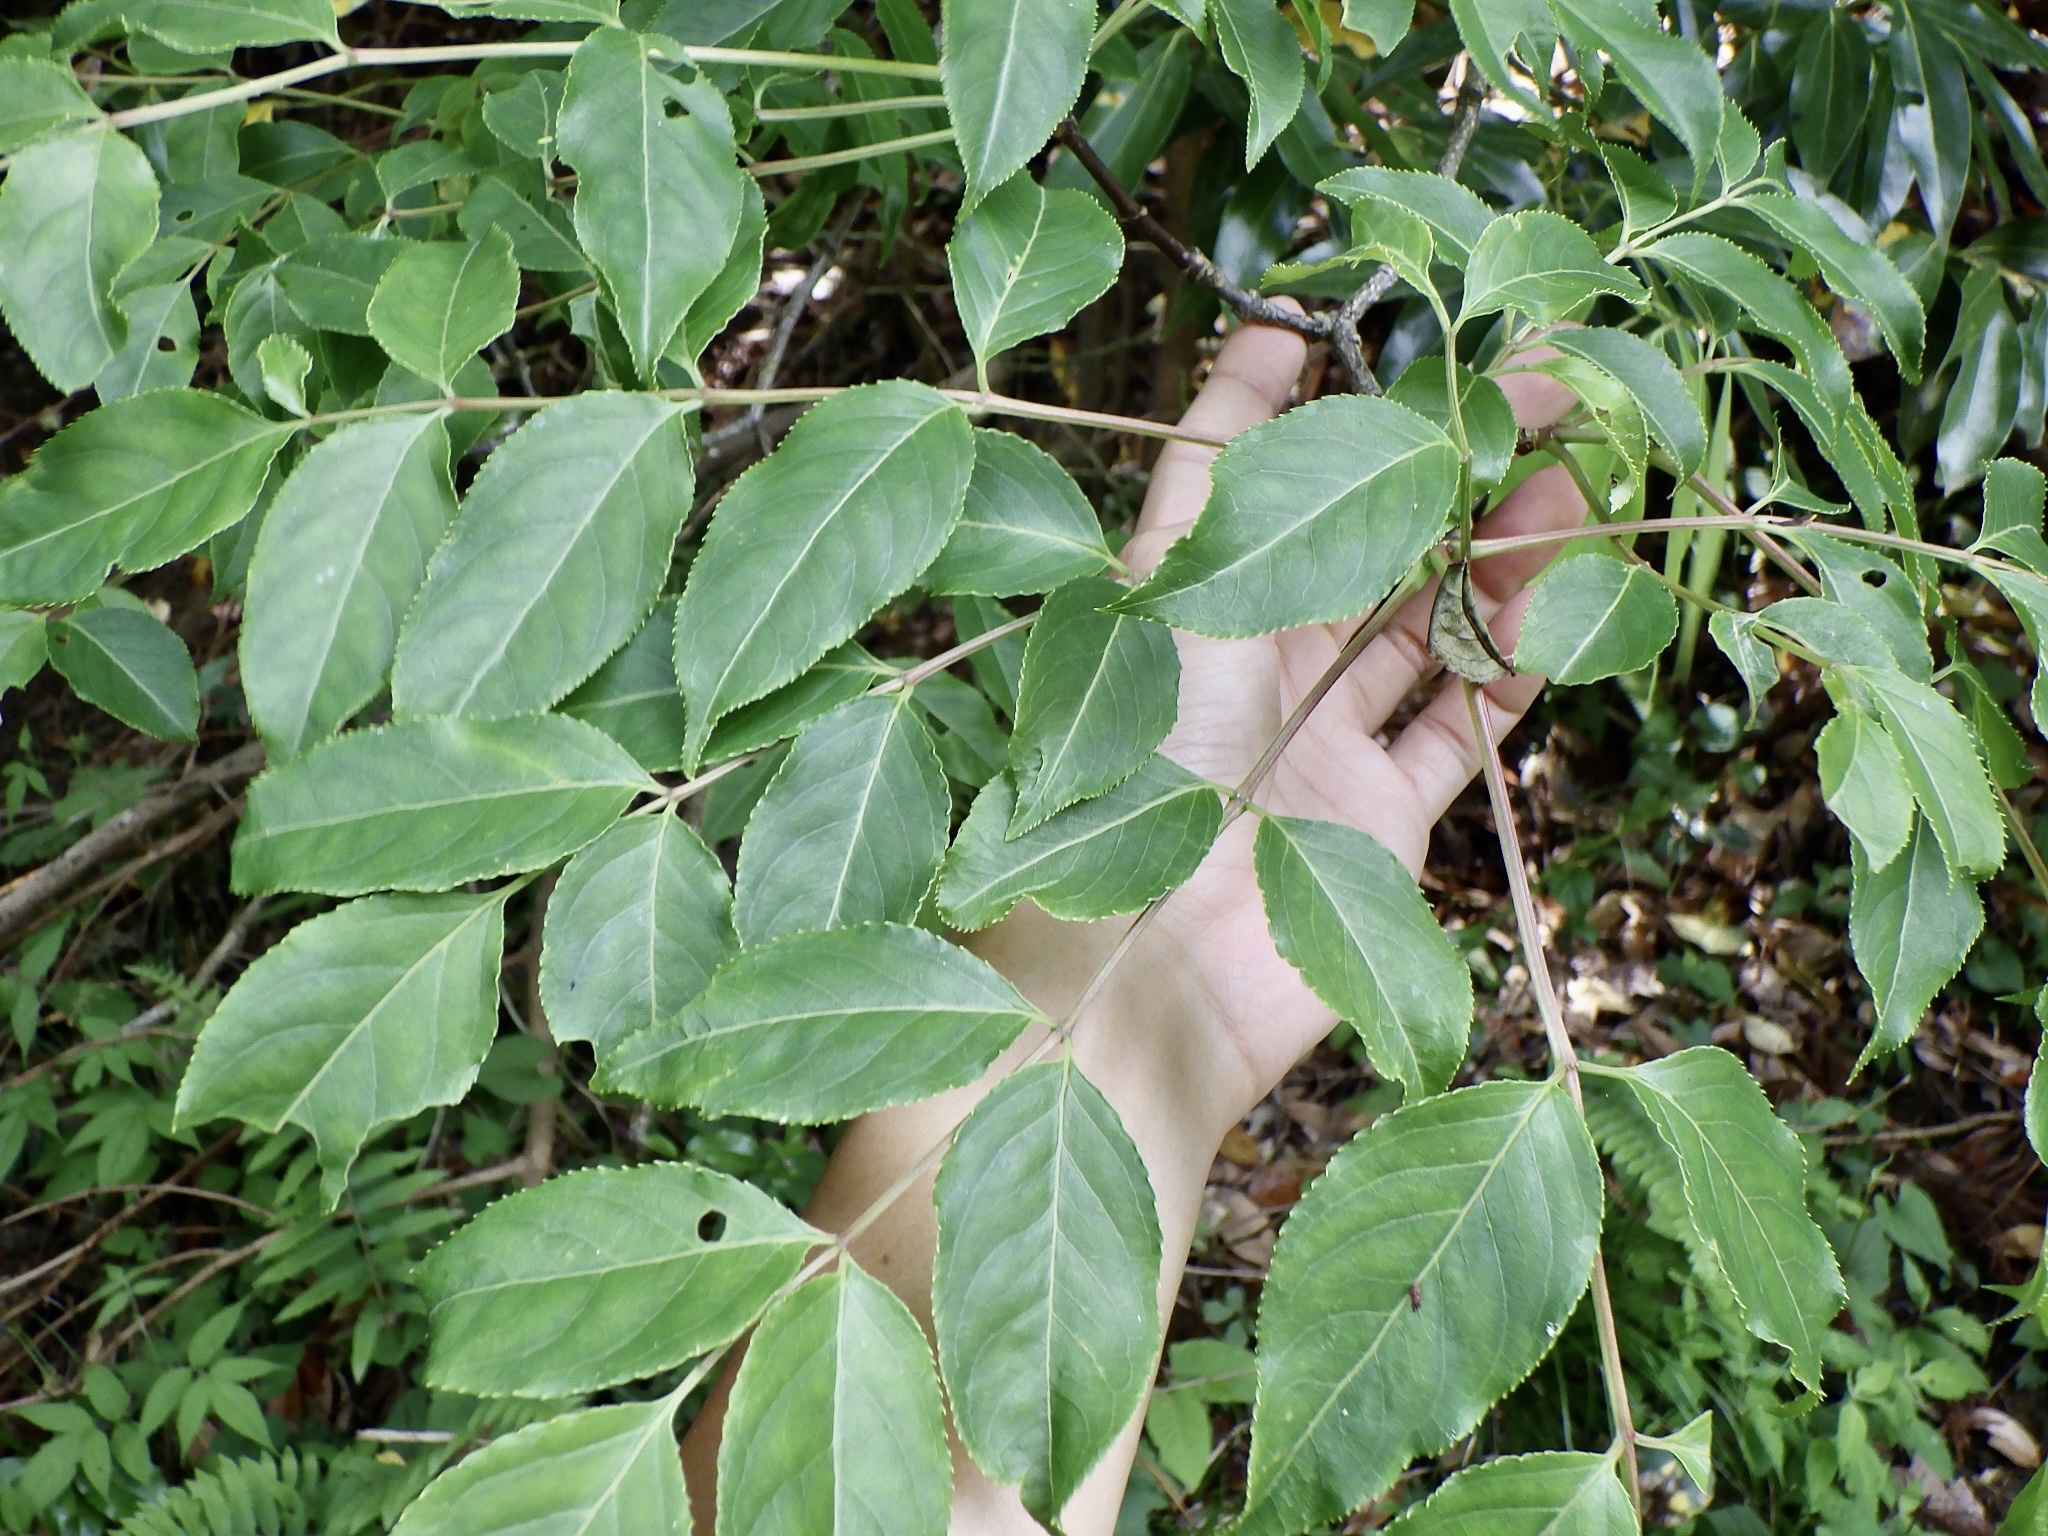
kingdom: Plantae
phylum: Tracheophyta
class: Magnoliopsida
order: Crossosomatales
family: Staphyleaceae
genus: Staphylea
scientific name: Staphylea japonica
